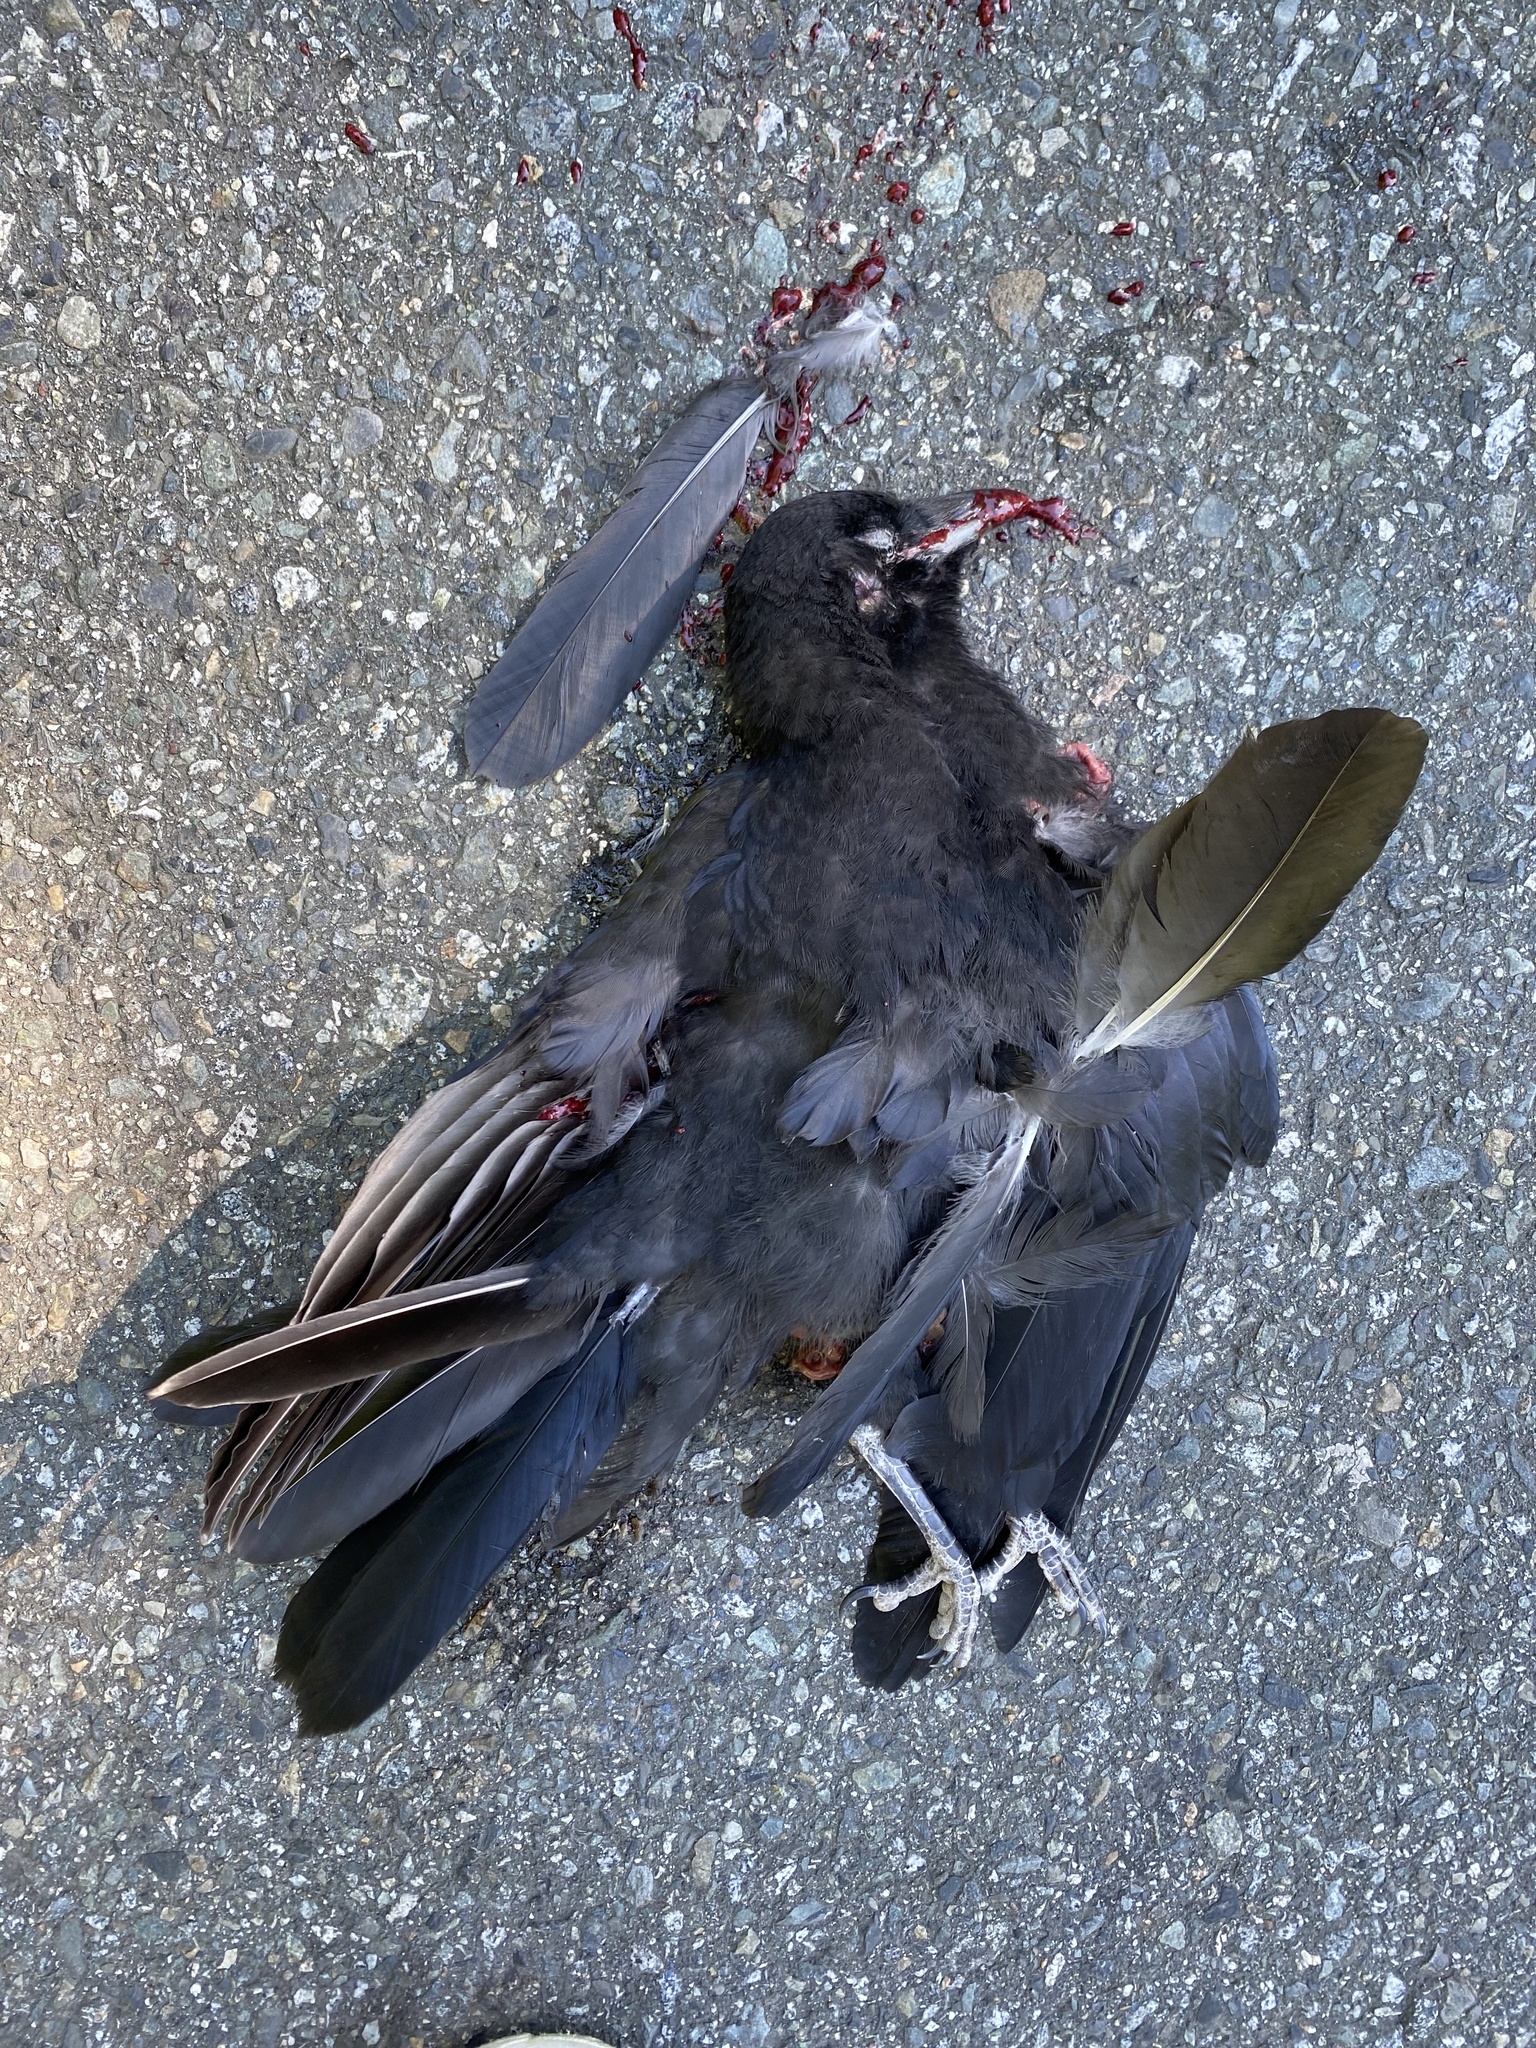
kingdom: Animalia
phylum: Chordata
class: Aves
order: Passeriformes
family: Corvidae
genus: Corvus
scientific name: Corvus brachyrhynchos
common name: American crow
